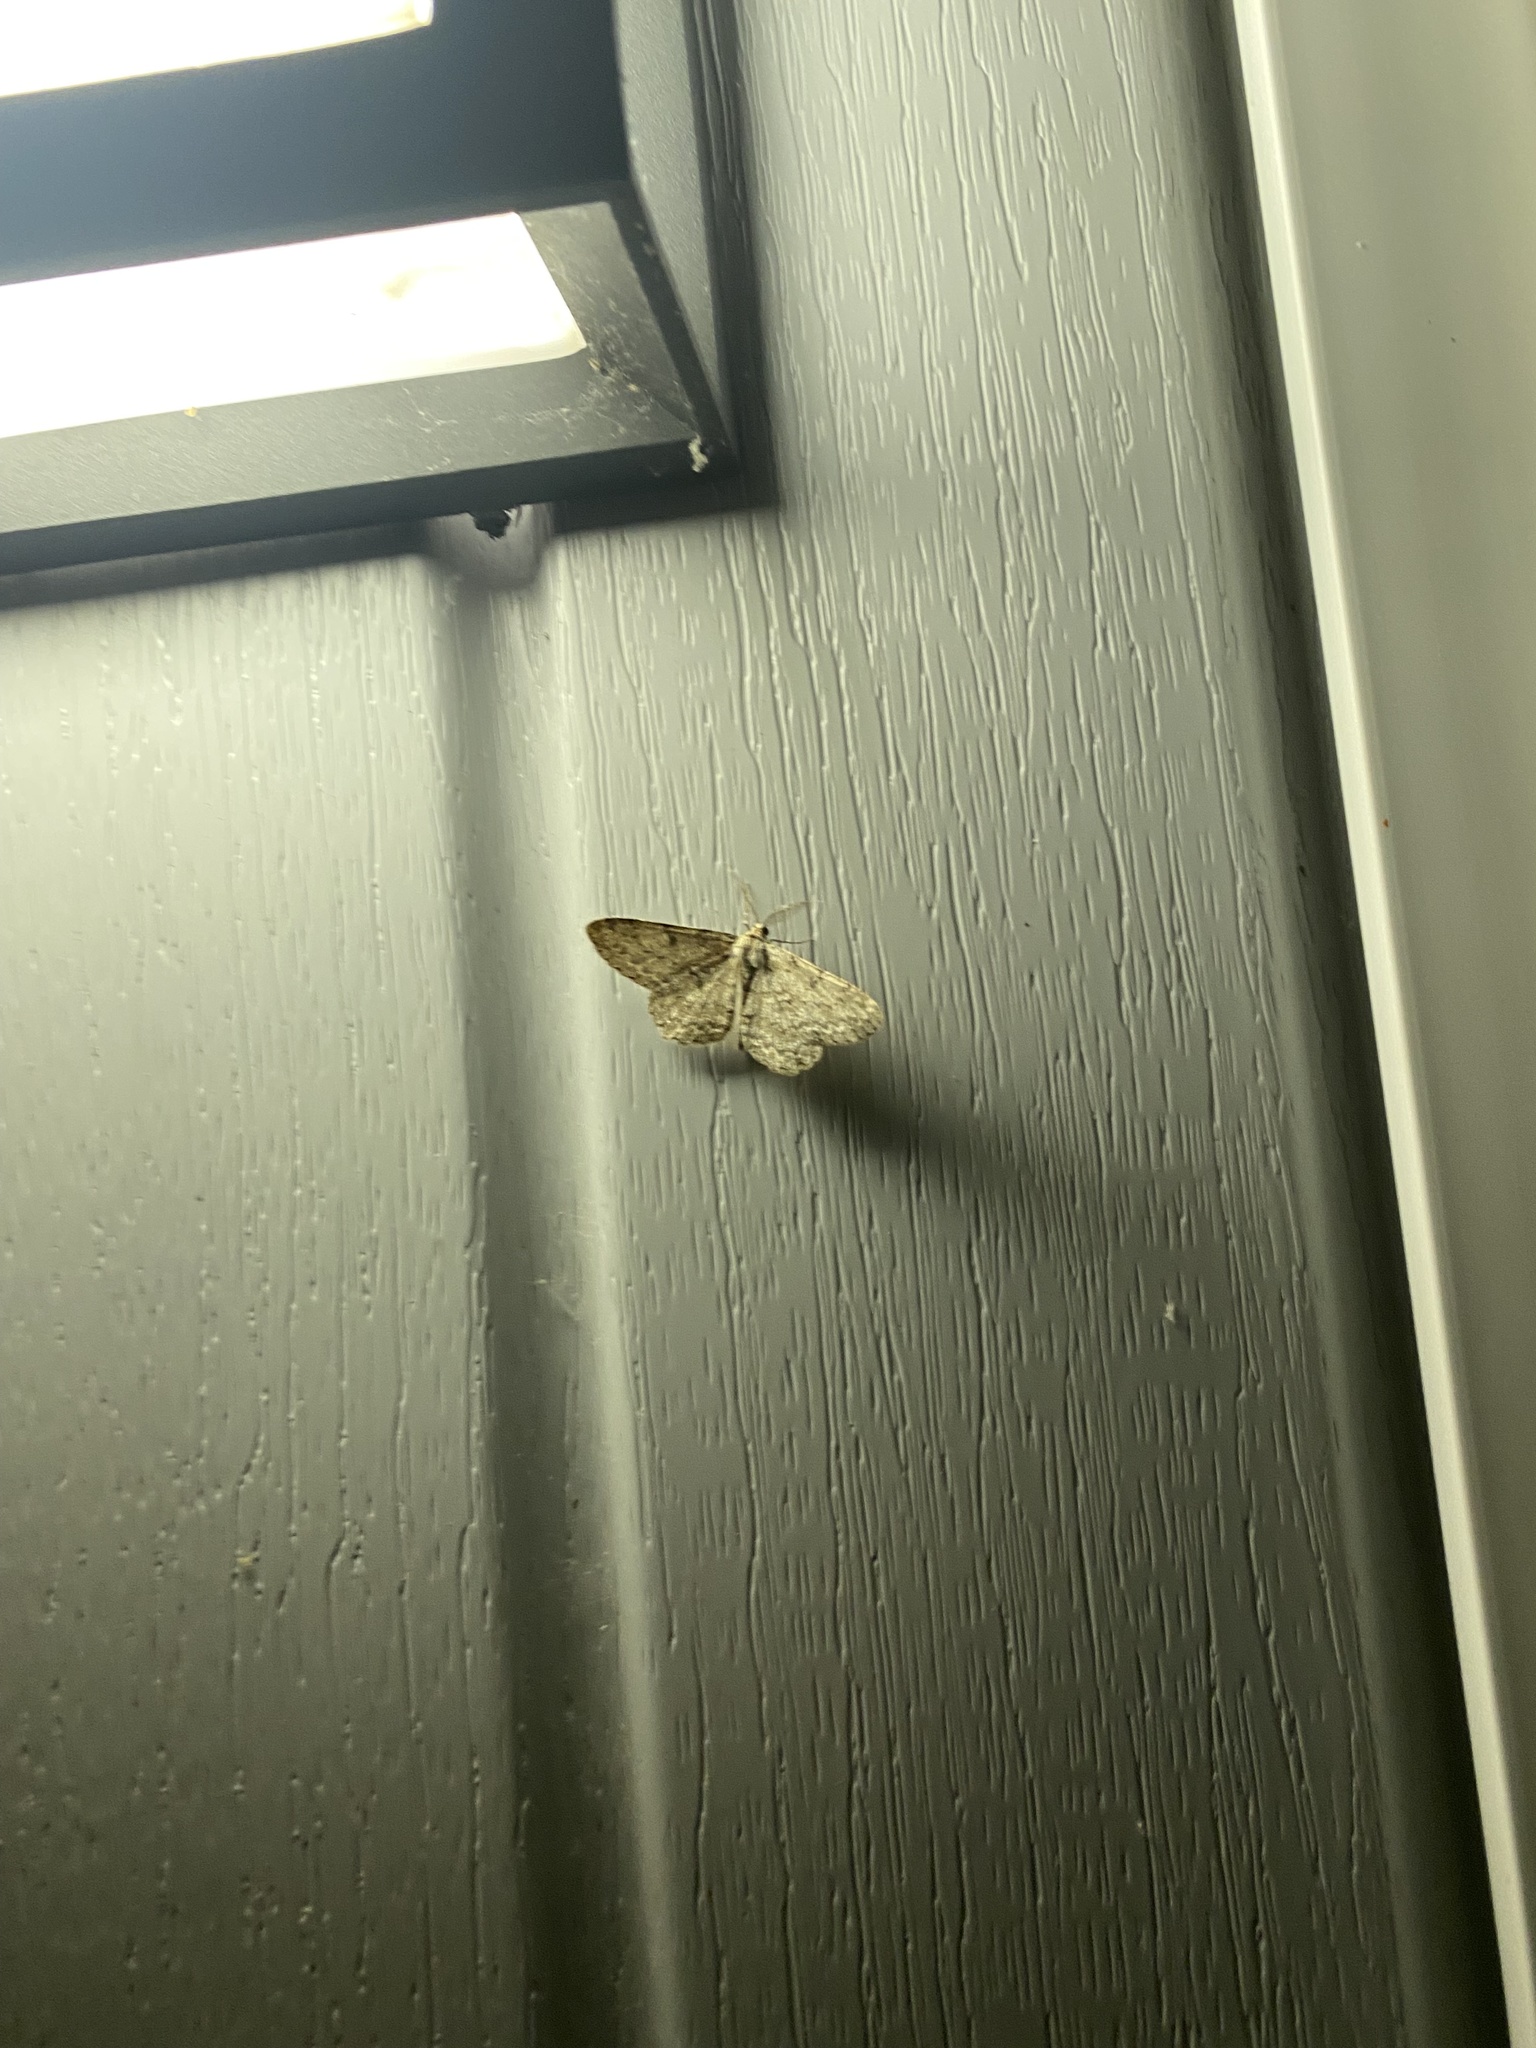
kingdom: Animalia
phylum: Arthropoda
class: Insecta
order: Lepidoptera
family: Geometridae
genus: Hypomecis
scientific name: Hypomecis punctinalis
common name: Pale oak beauty
